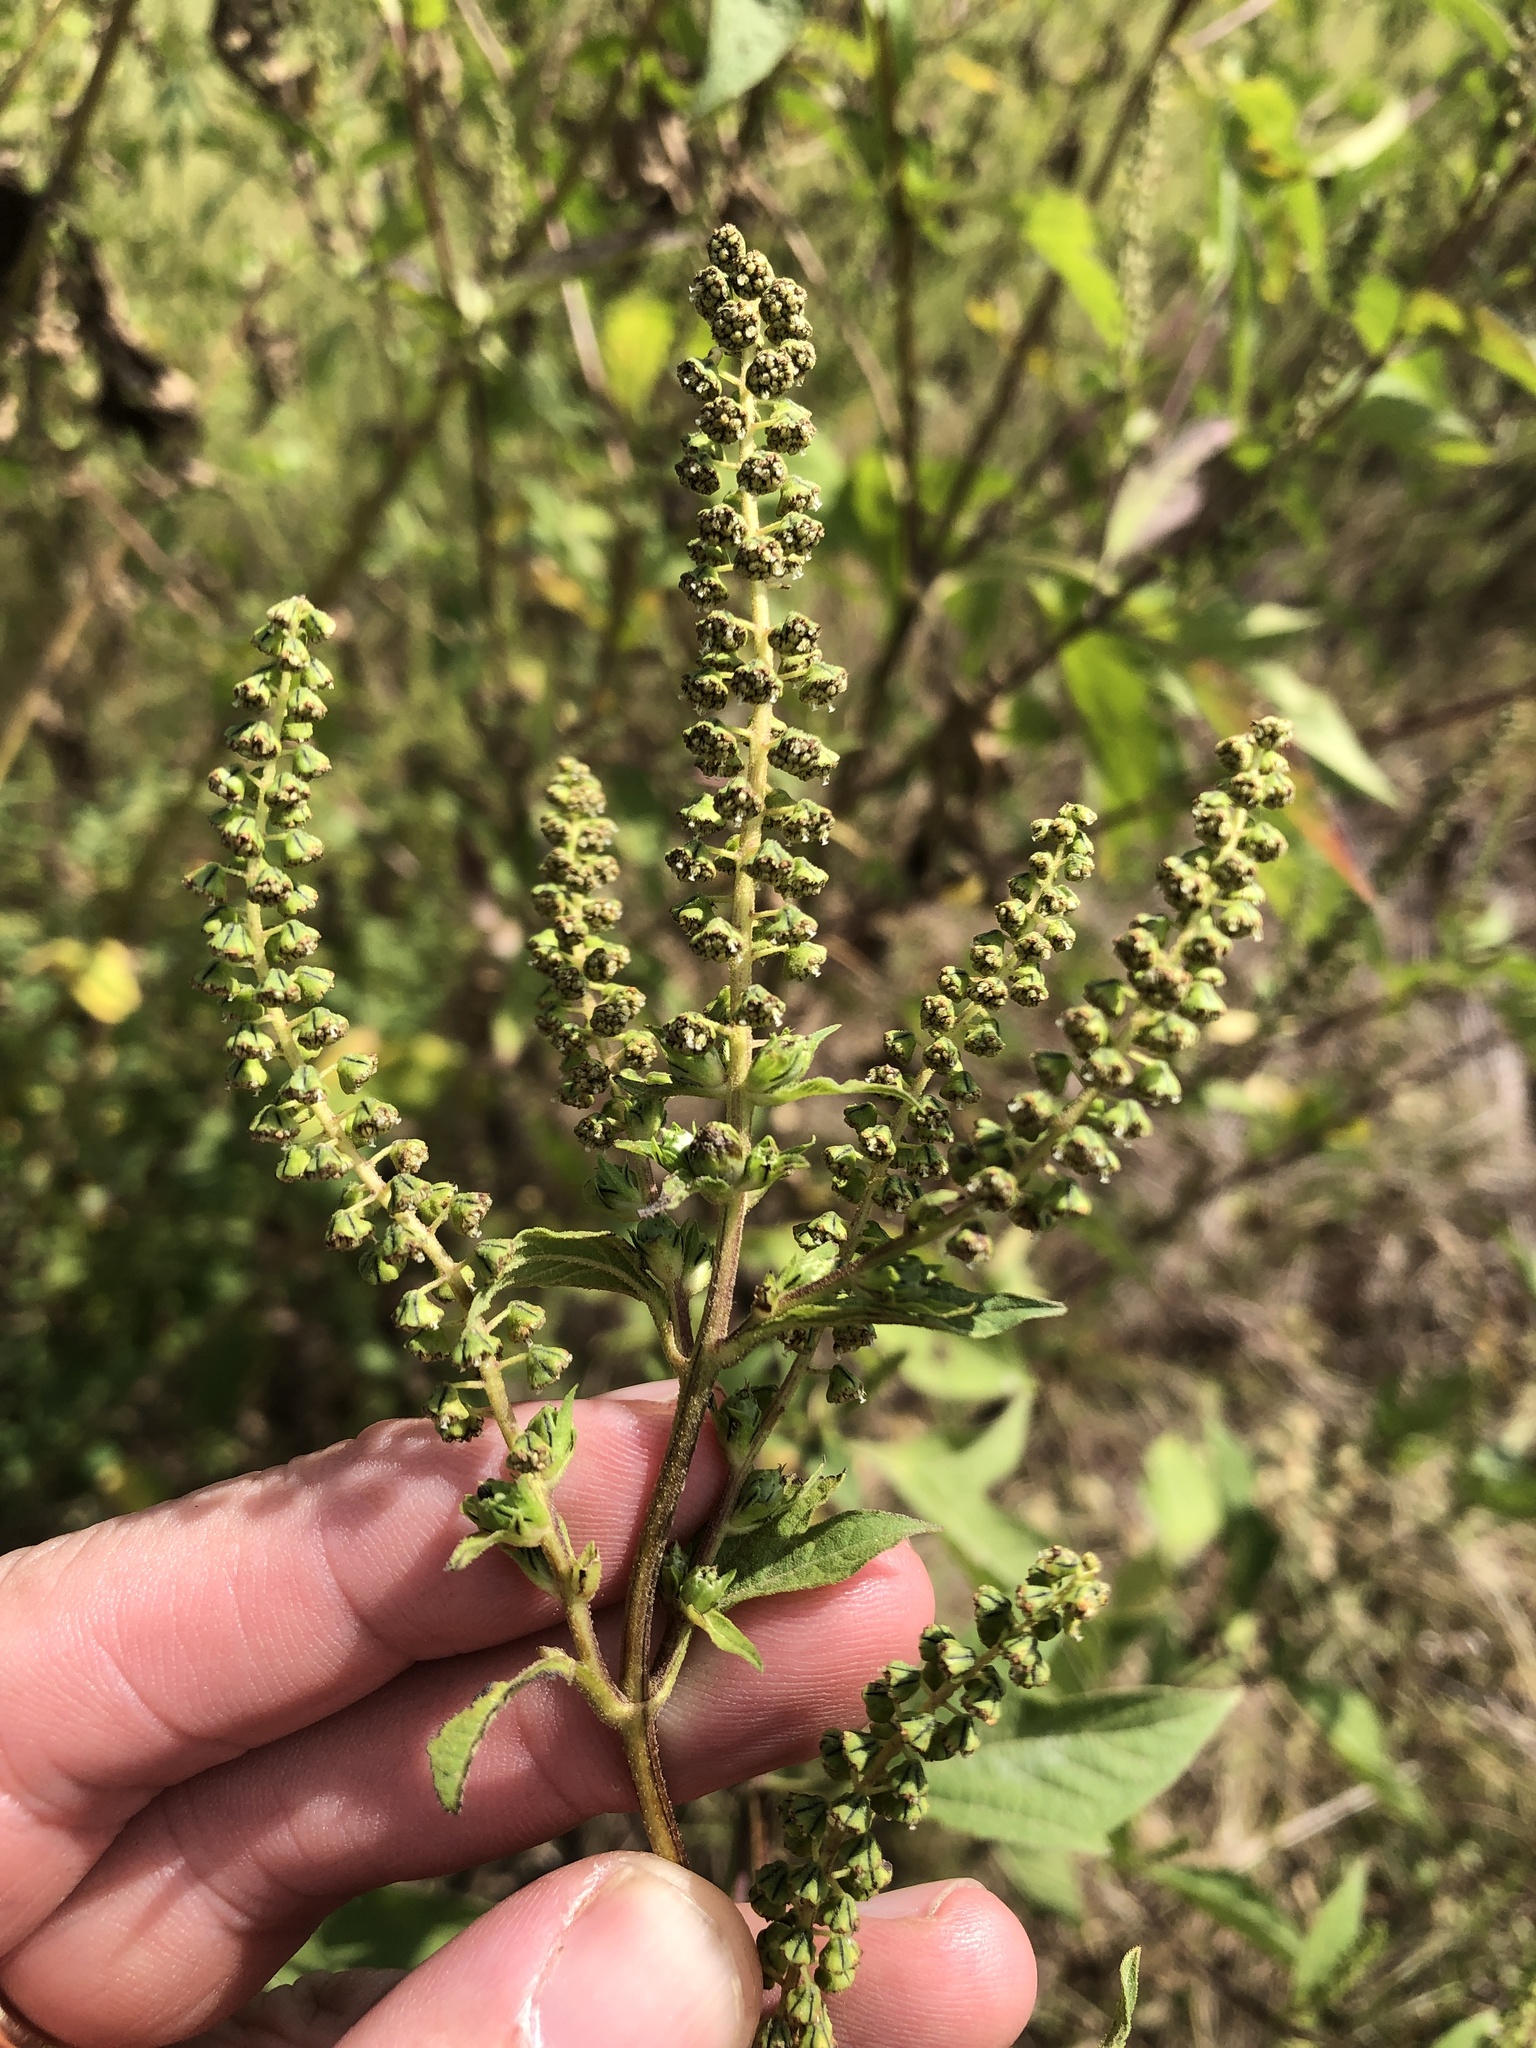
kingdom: Plantae
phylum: Tracheophyta
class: Magnoliopsida
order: Asterales
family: Asteraceae
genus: Ambrosia
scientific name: Ambrosia trifida
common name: Giant ragweed
